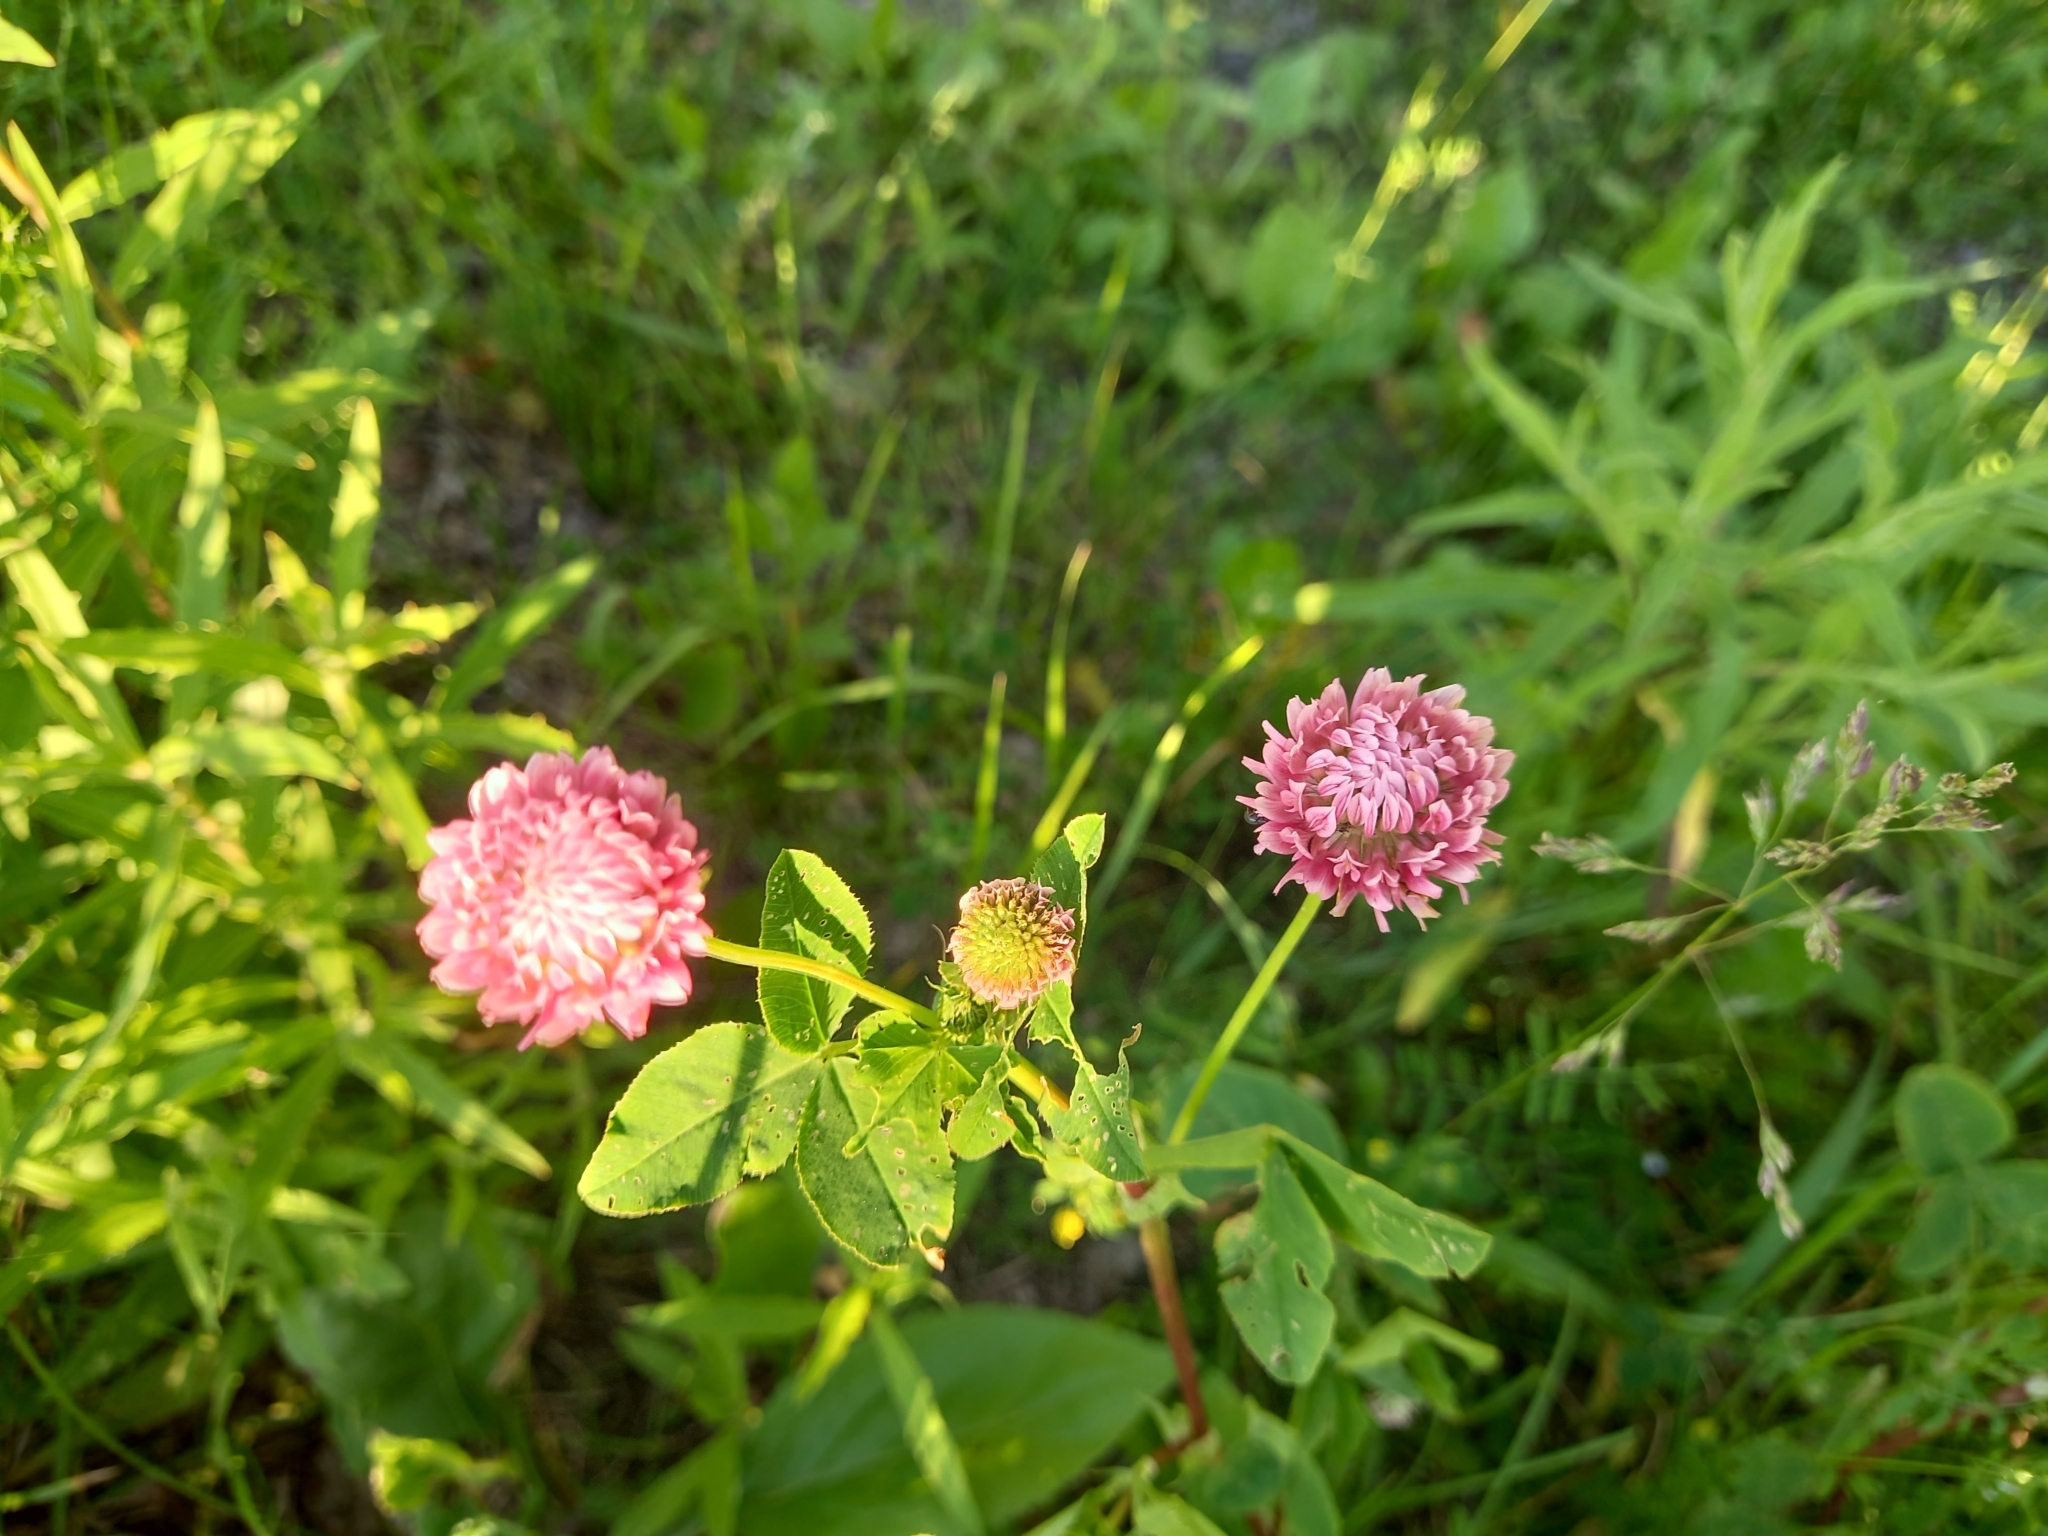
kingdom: Plantae
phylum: Tracheophyta
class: Magnoliopsida
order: Fabales
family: Fabaceae
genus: Trifolium
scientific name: Trifolium hybridum
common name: Alsike clover
